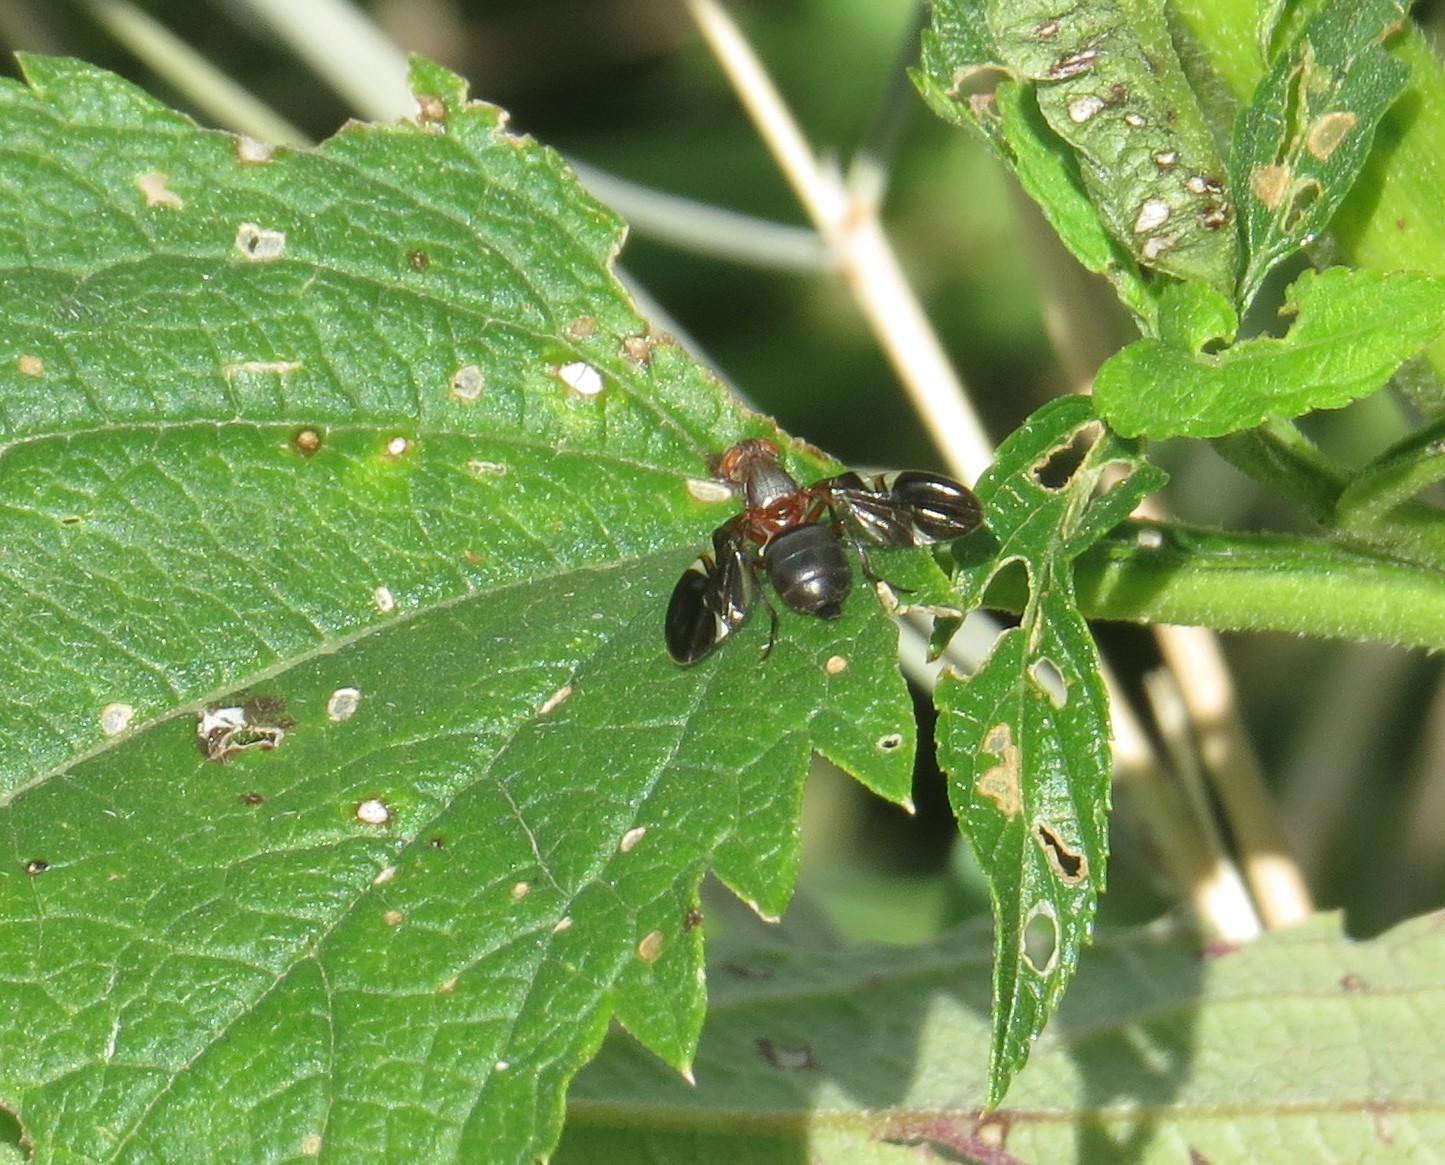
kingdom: Animalia
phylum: Arthropoda
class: Insecta
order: Diptera
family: Ulidiidae
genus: Delphinia
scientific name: Delphinia picta
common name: Common picture-winged fly
